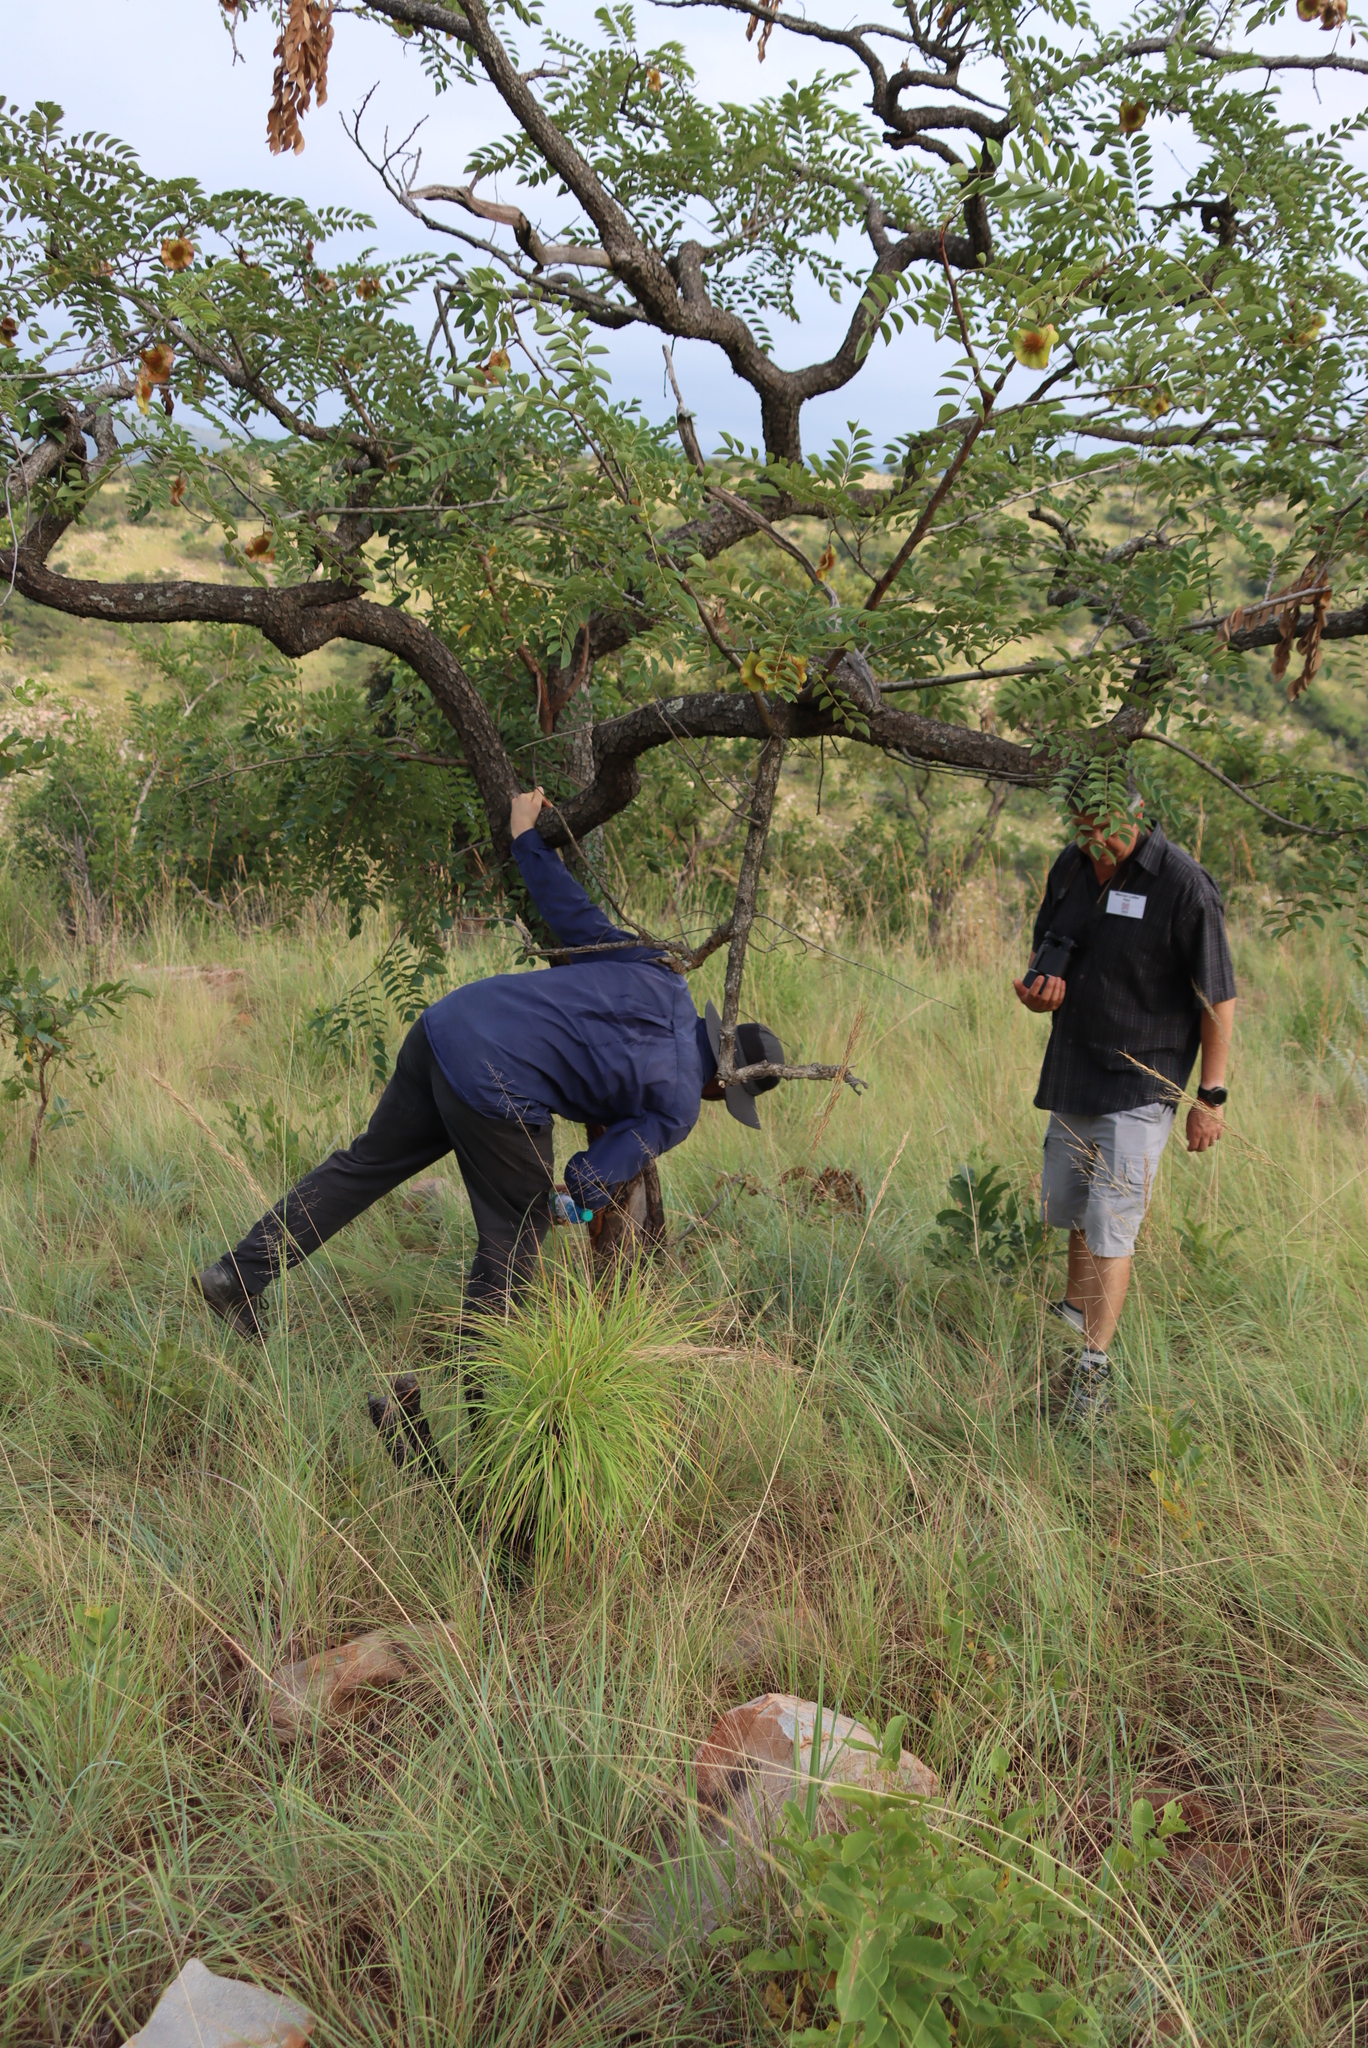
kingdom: Animalia
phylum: Chordata
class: Mammalia
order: Rodentia
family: Hystricidae
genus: Hystrix
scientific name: Hystrix africaeaustralis
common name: Cape porcupine
